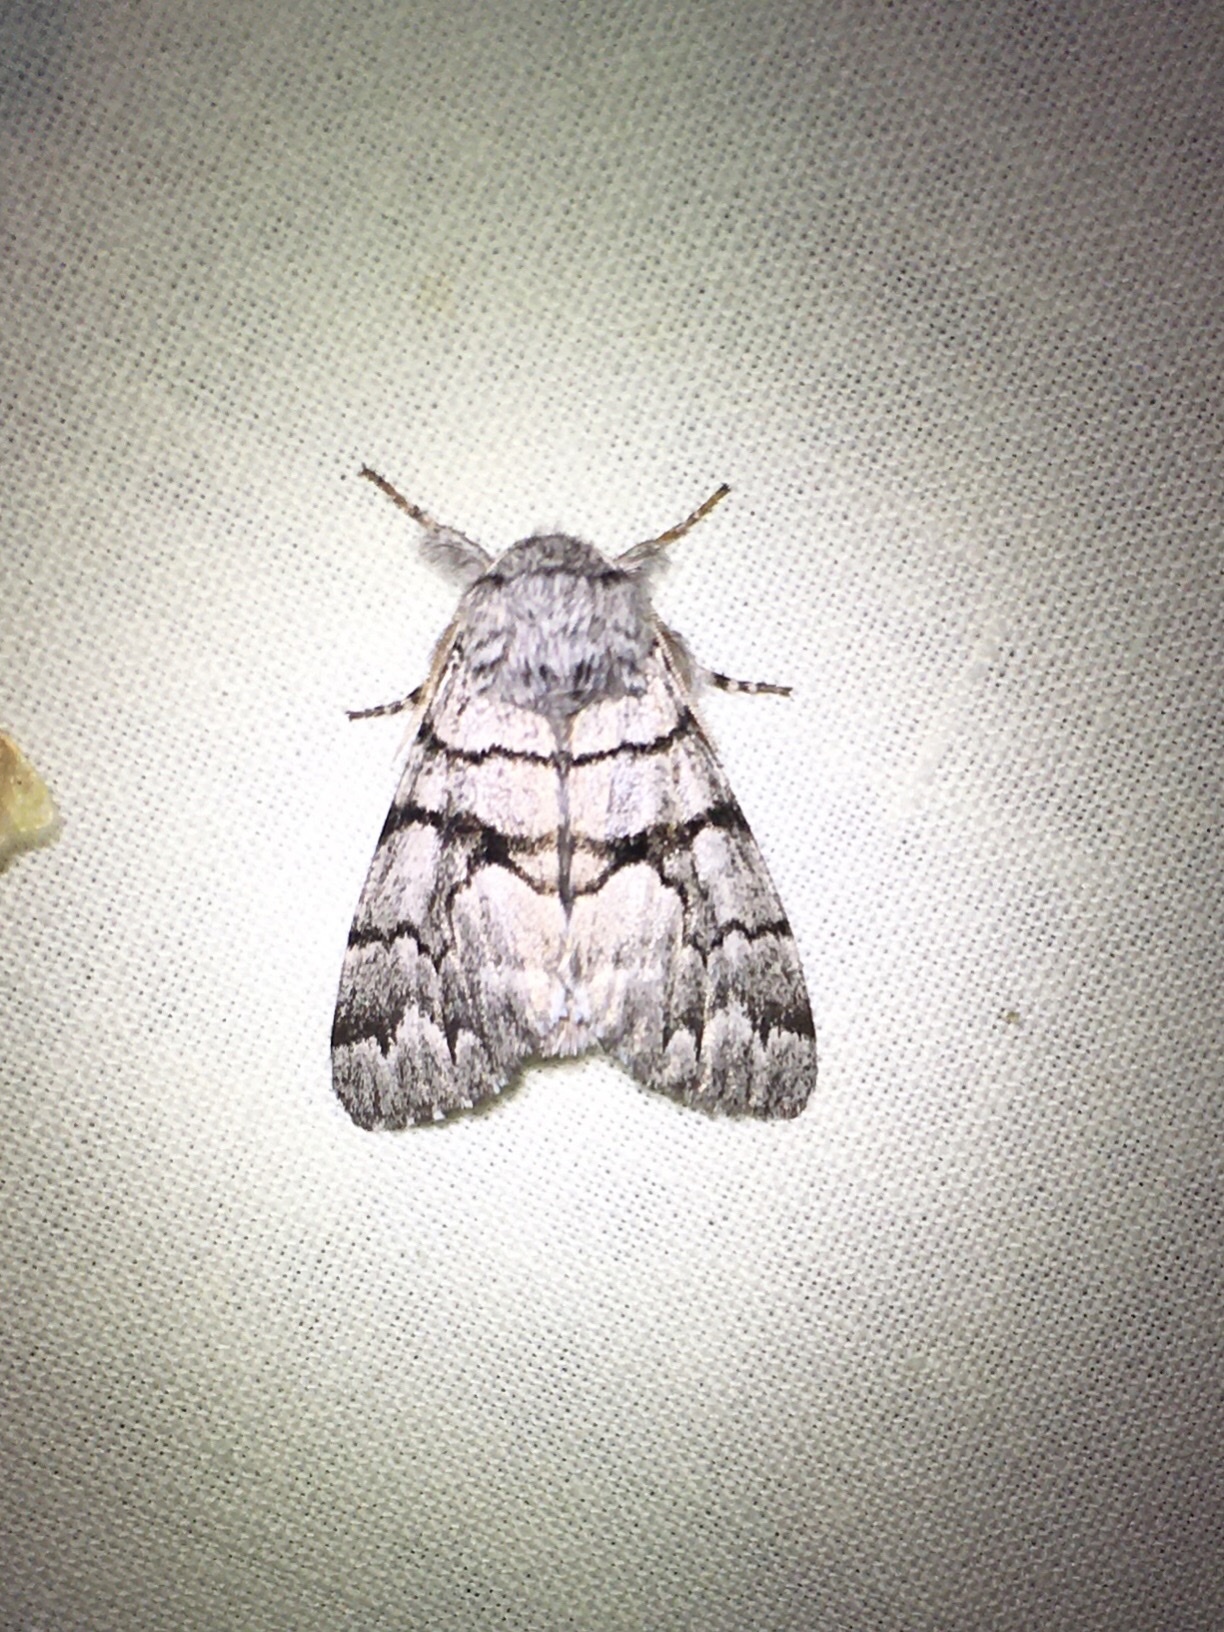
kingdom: Animalia
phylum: Arthropoda
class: Insecta
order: Lepidoptera
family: Noctuidae
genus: Panthea
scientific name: Panthea furcilla
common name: Eastern panthea moth
